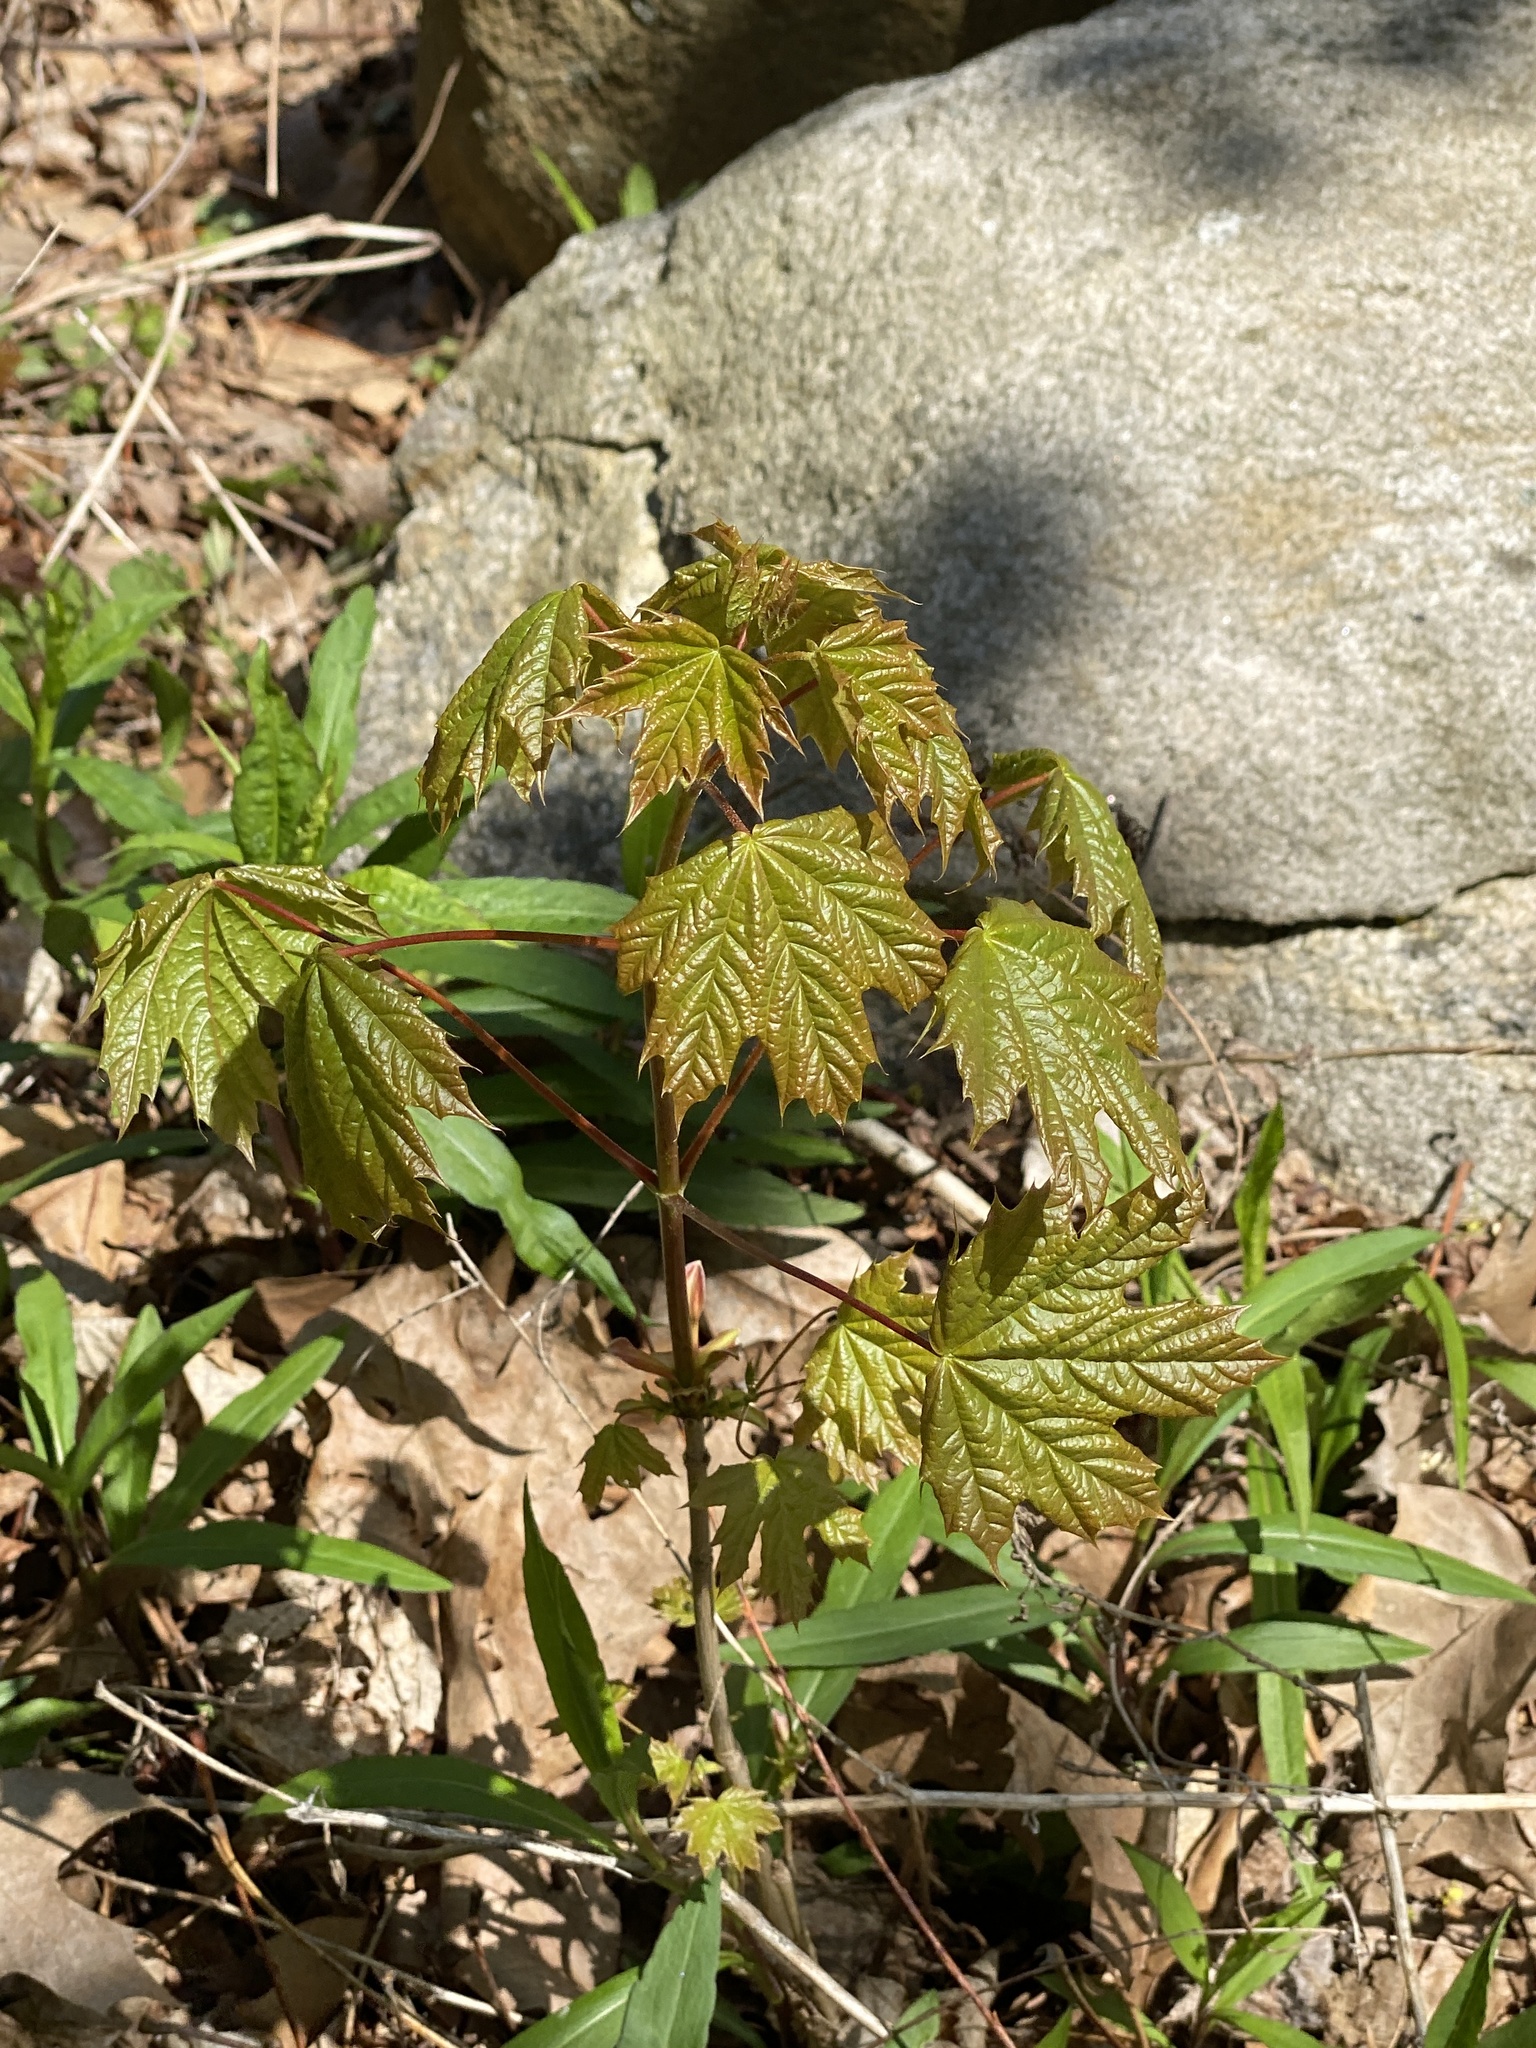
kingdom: Plantae
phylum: Tracheophyta
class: Magnoliopsida
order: Sapindales
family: Sapindaceae
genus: Acer
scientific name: Acer platanoides
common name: Norway maple
